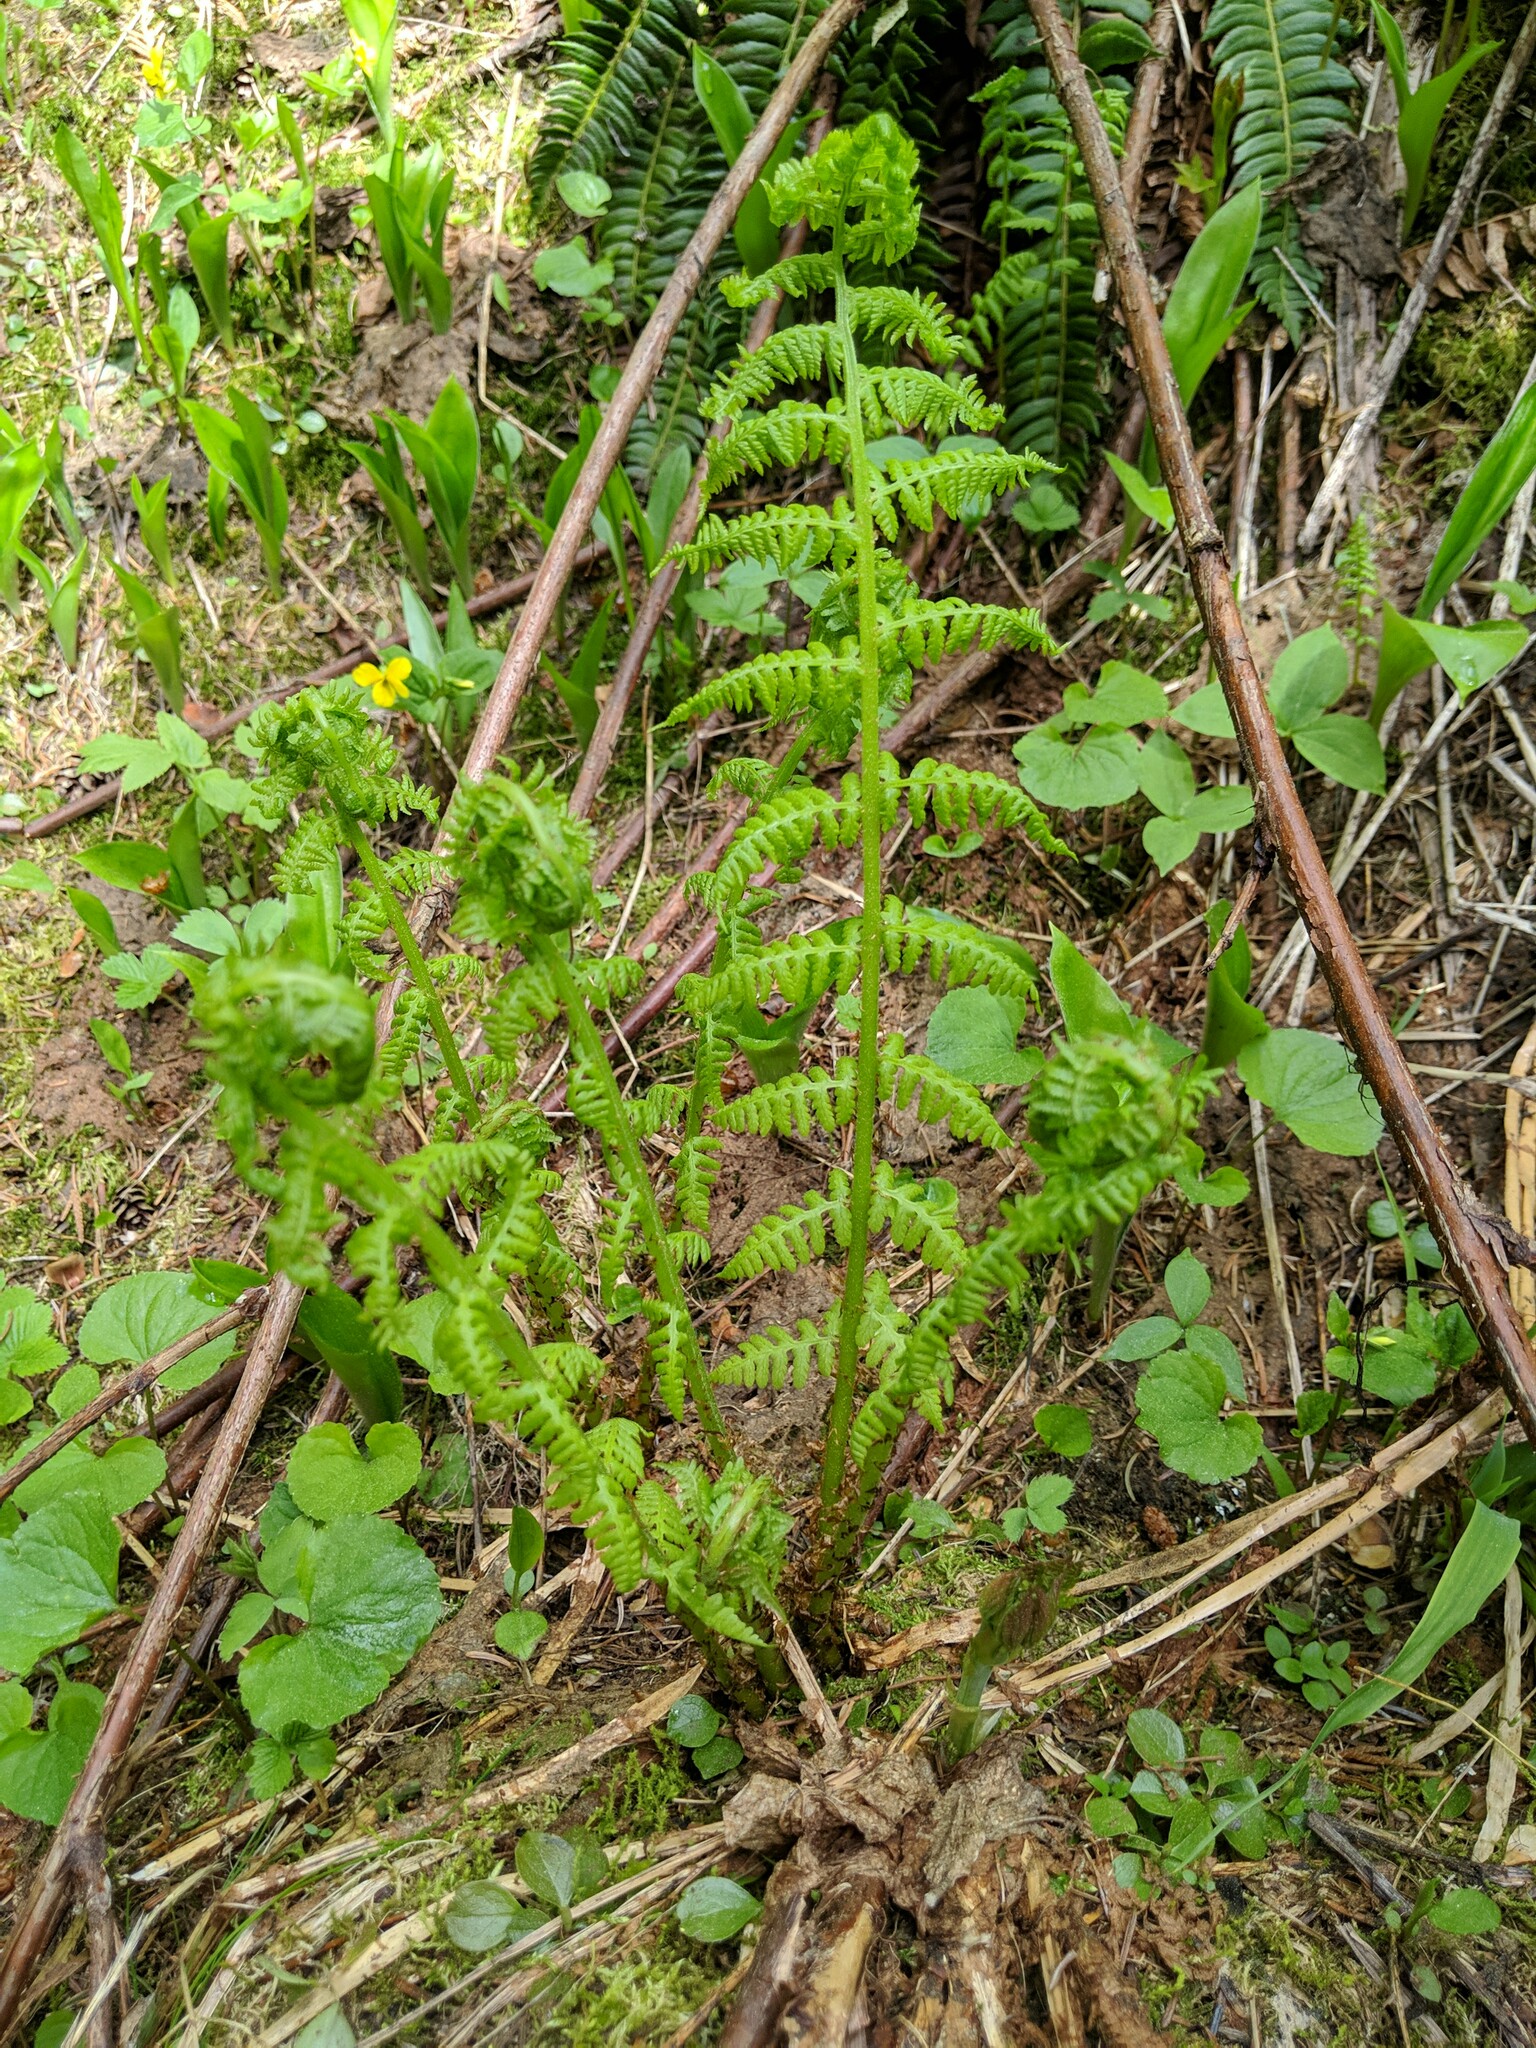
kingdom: Plantae
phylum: Tracheophyta
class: Polypodiopsida
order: Polypodiales
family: Athyriaceae
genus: Athyrium
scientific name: Athyrium cyclosorum
